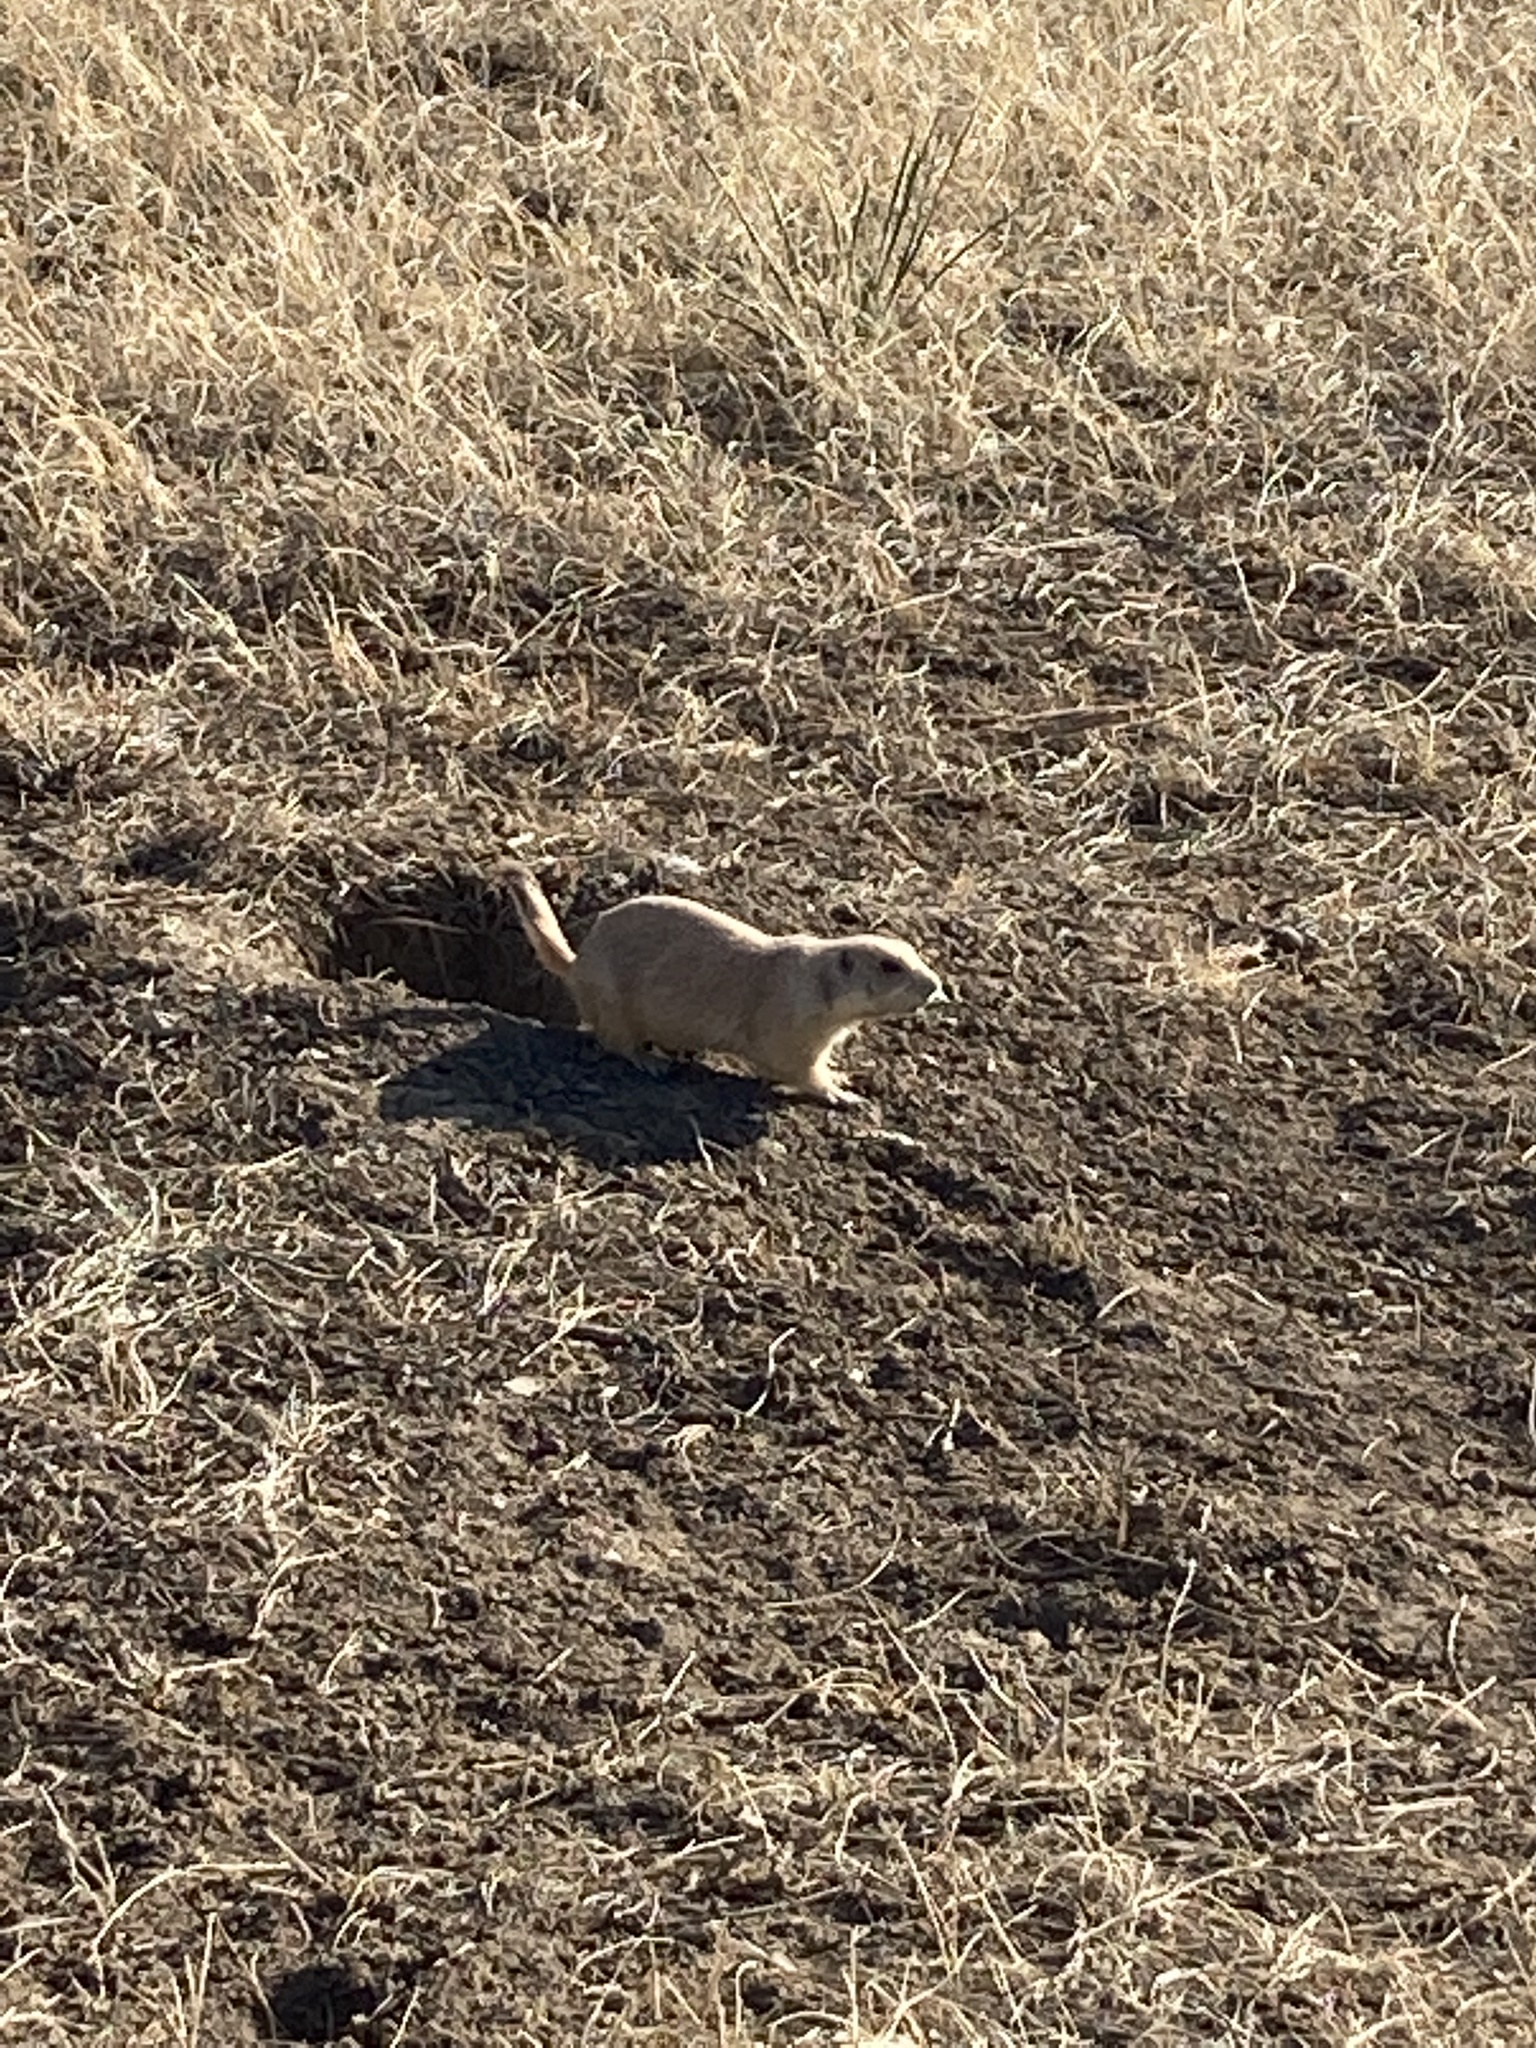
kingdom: Animalia
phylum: Chordata
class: Mammalia
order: Rodentia
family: Sciuridae
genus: Cynomys
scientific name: Cynomys ludovicianus
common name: Black-tailed prairie dog
